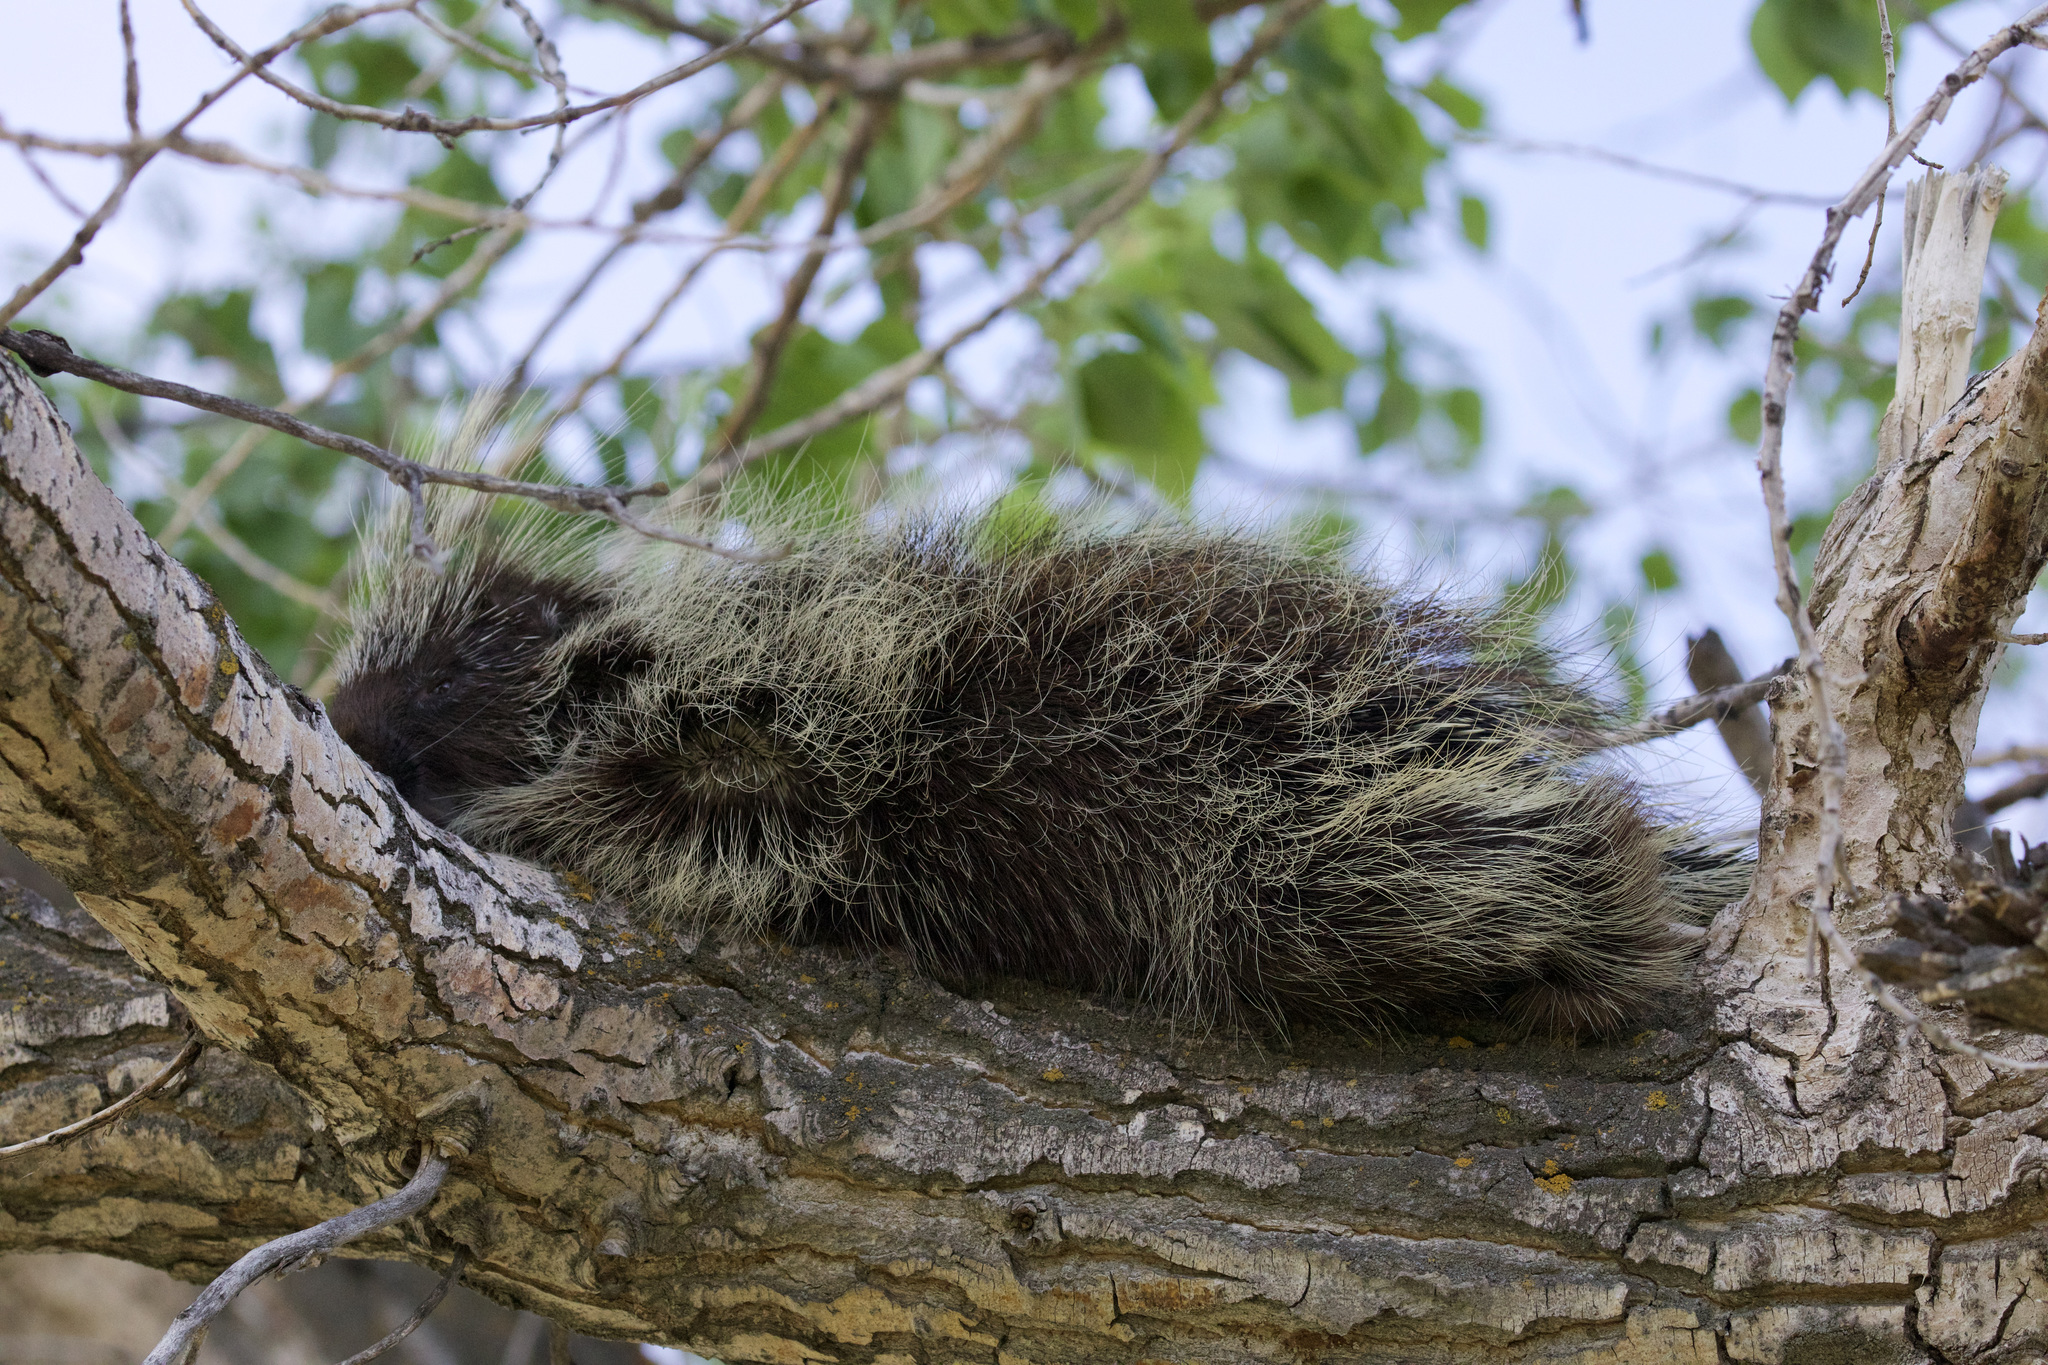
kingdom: Animalia
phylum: Chordata
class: Mammalia
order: Rodentia
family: Erethizontidae
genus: Erethizon
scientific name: Erethizon dorsatus
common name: North american porcupine
